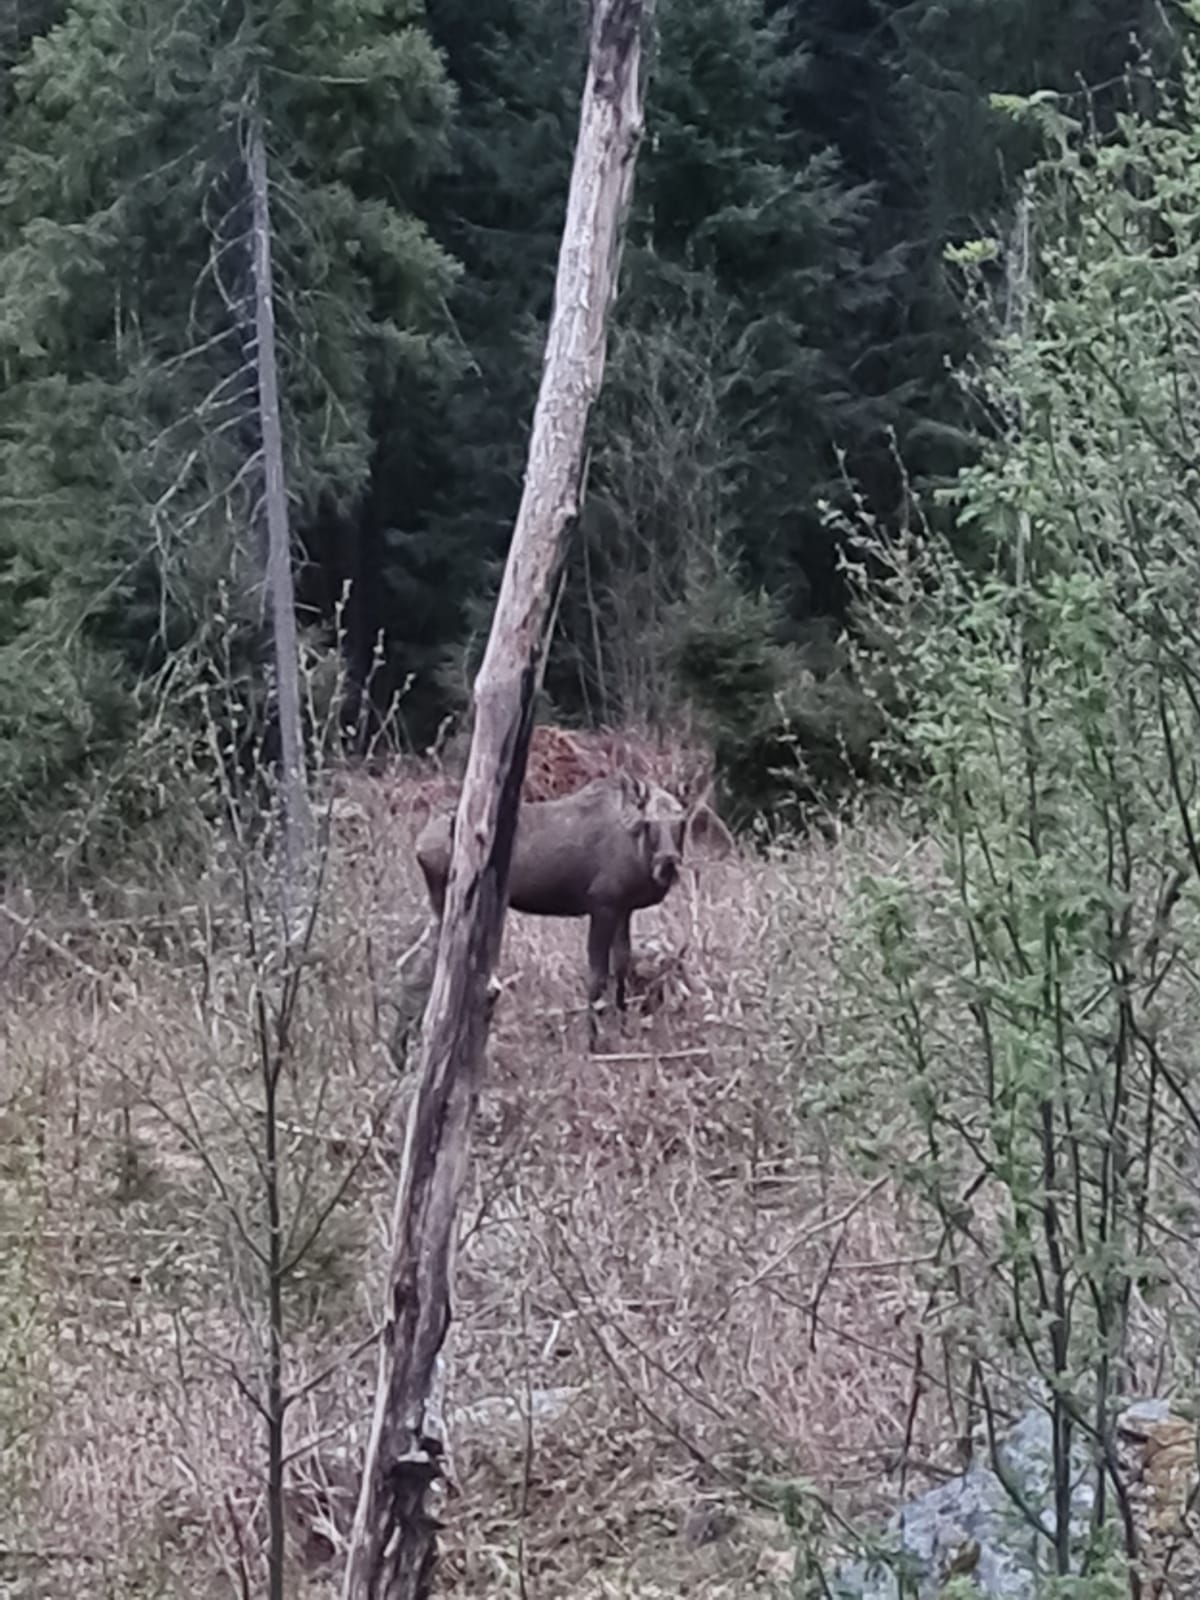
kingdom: Animalia
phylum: Chordata
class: Mammalia
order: Artiodactyla
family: Cervidae
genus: Alces
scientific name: Alces alces
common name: Moose
